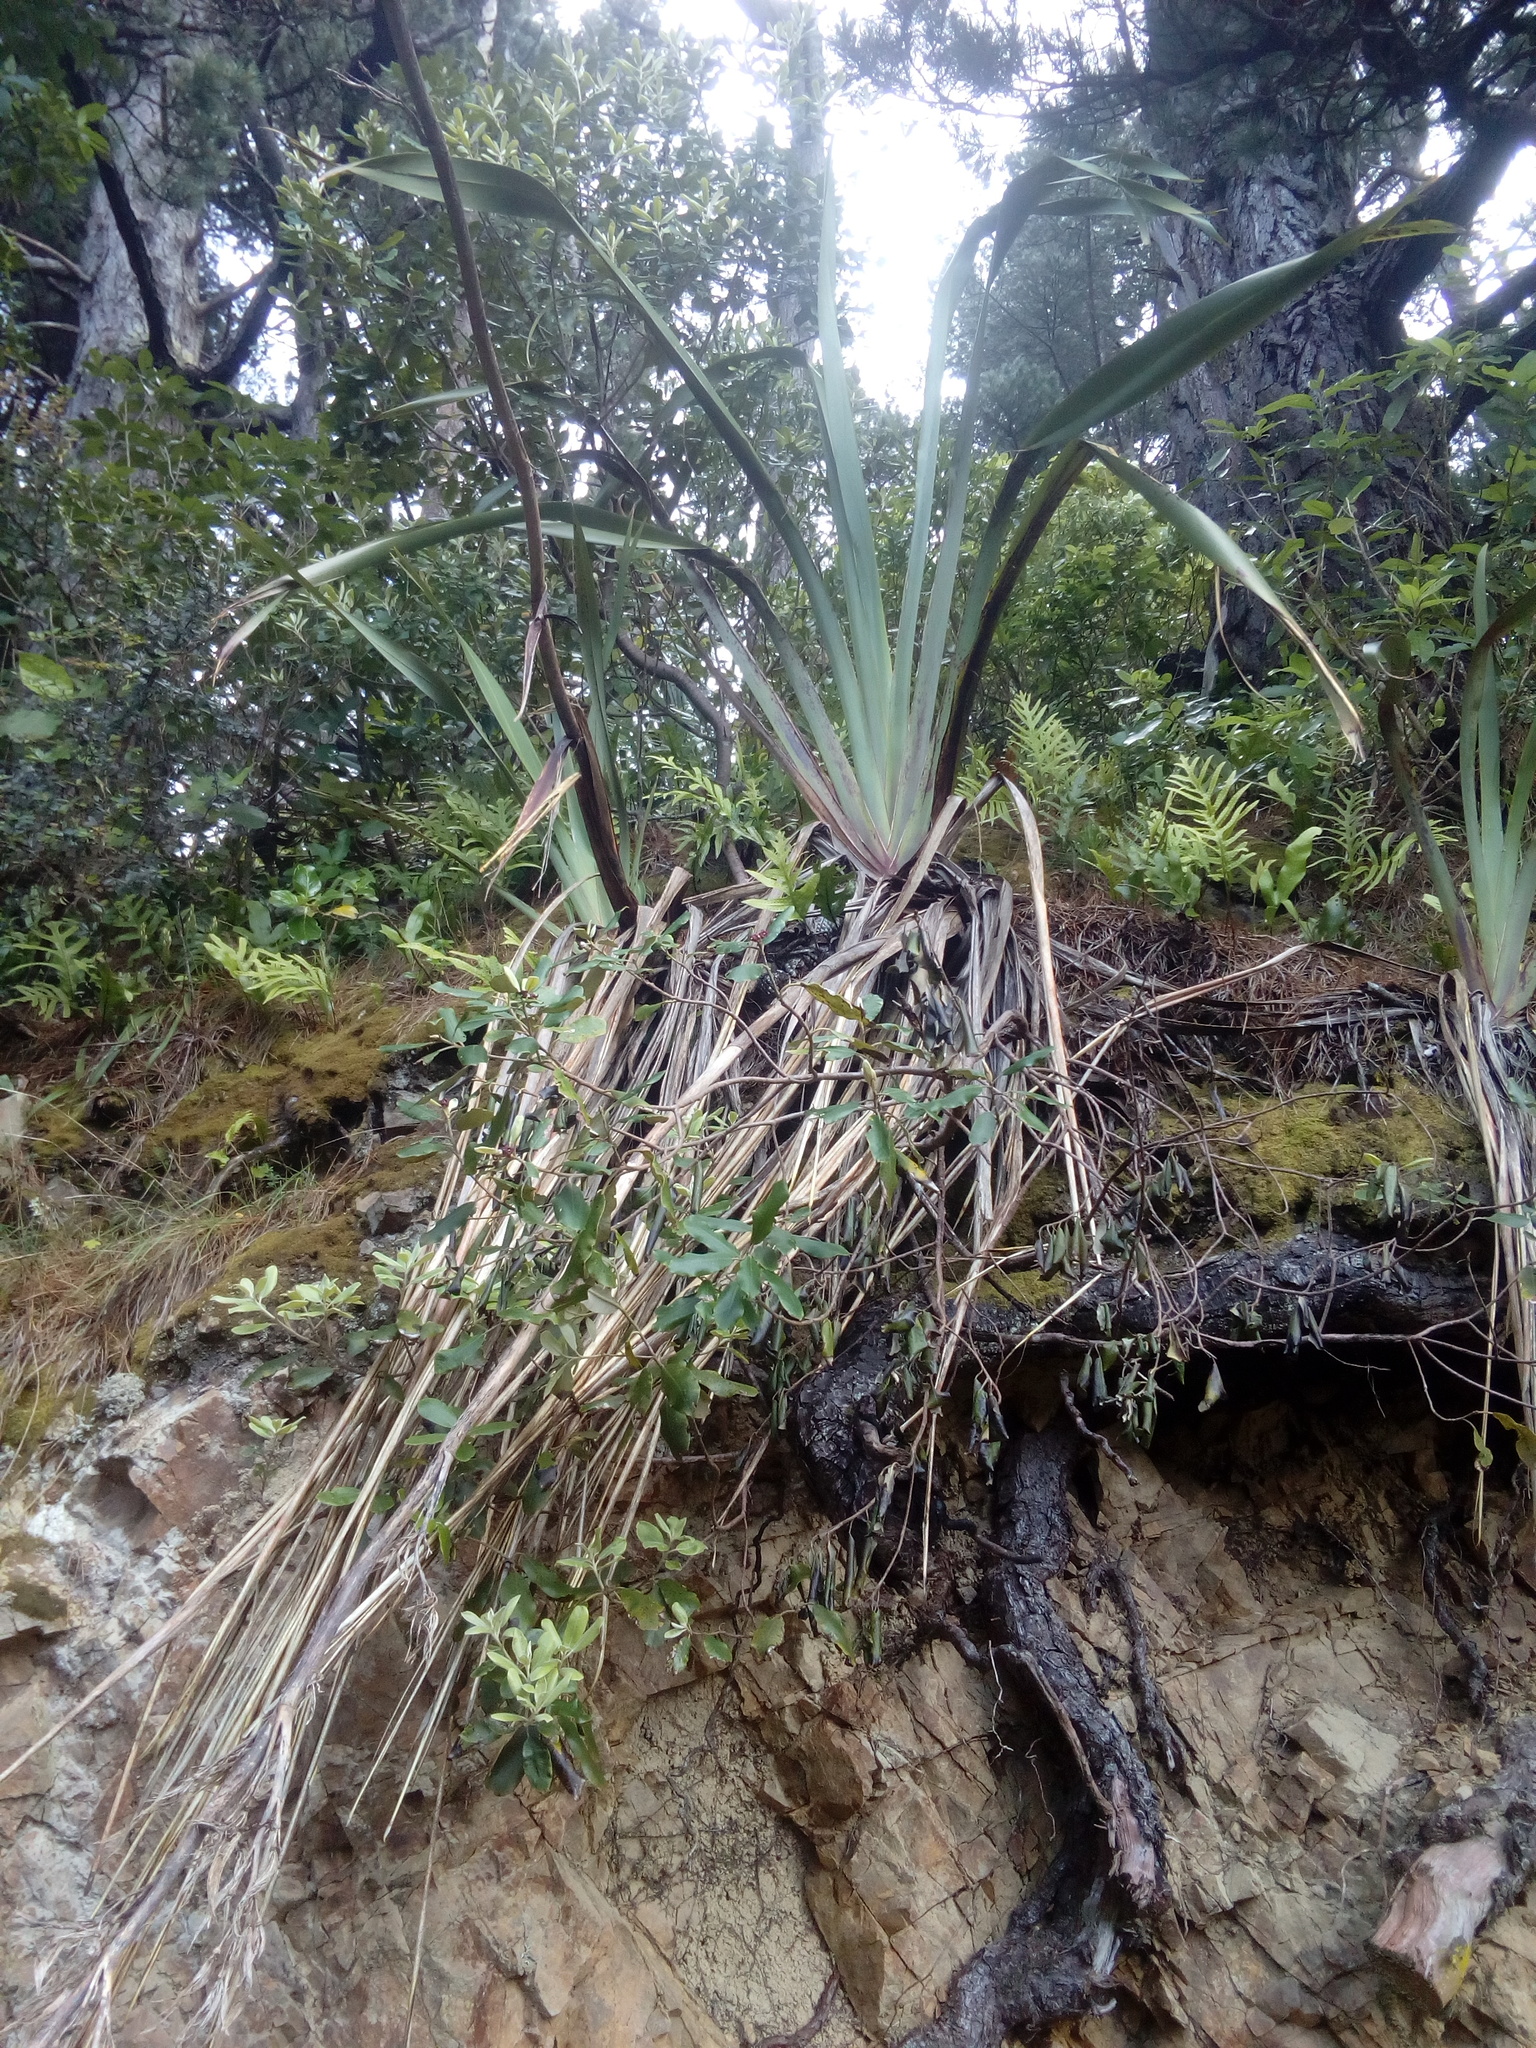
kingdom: Plantae
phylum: Tracheophyta
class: Liliopsida
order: Asparagales
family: Asphodelaceae
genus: Phormium
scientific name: Phormium tenax
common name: New zealand flax
